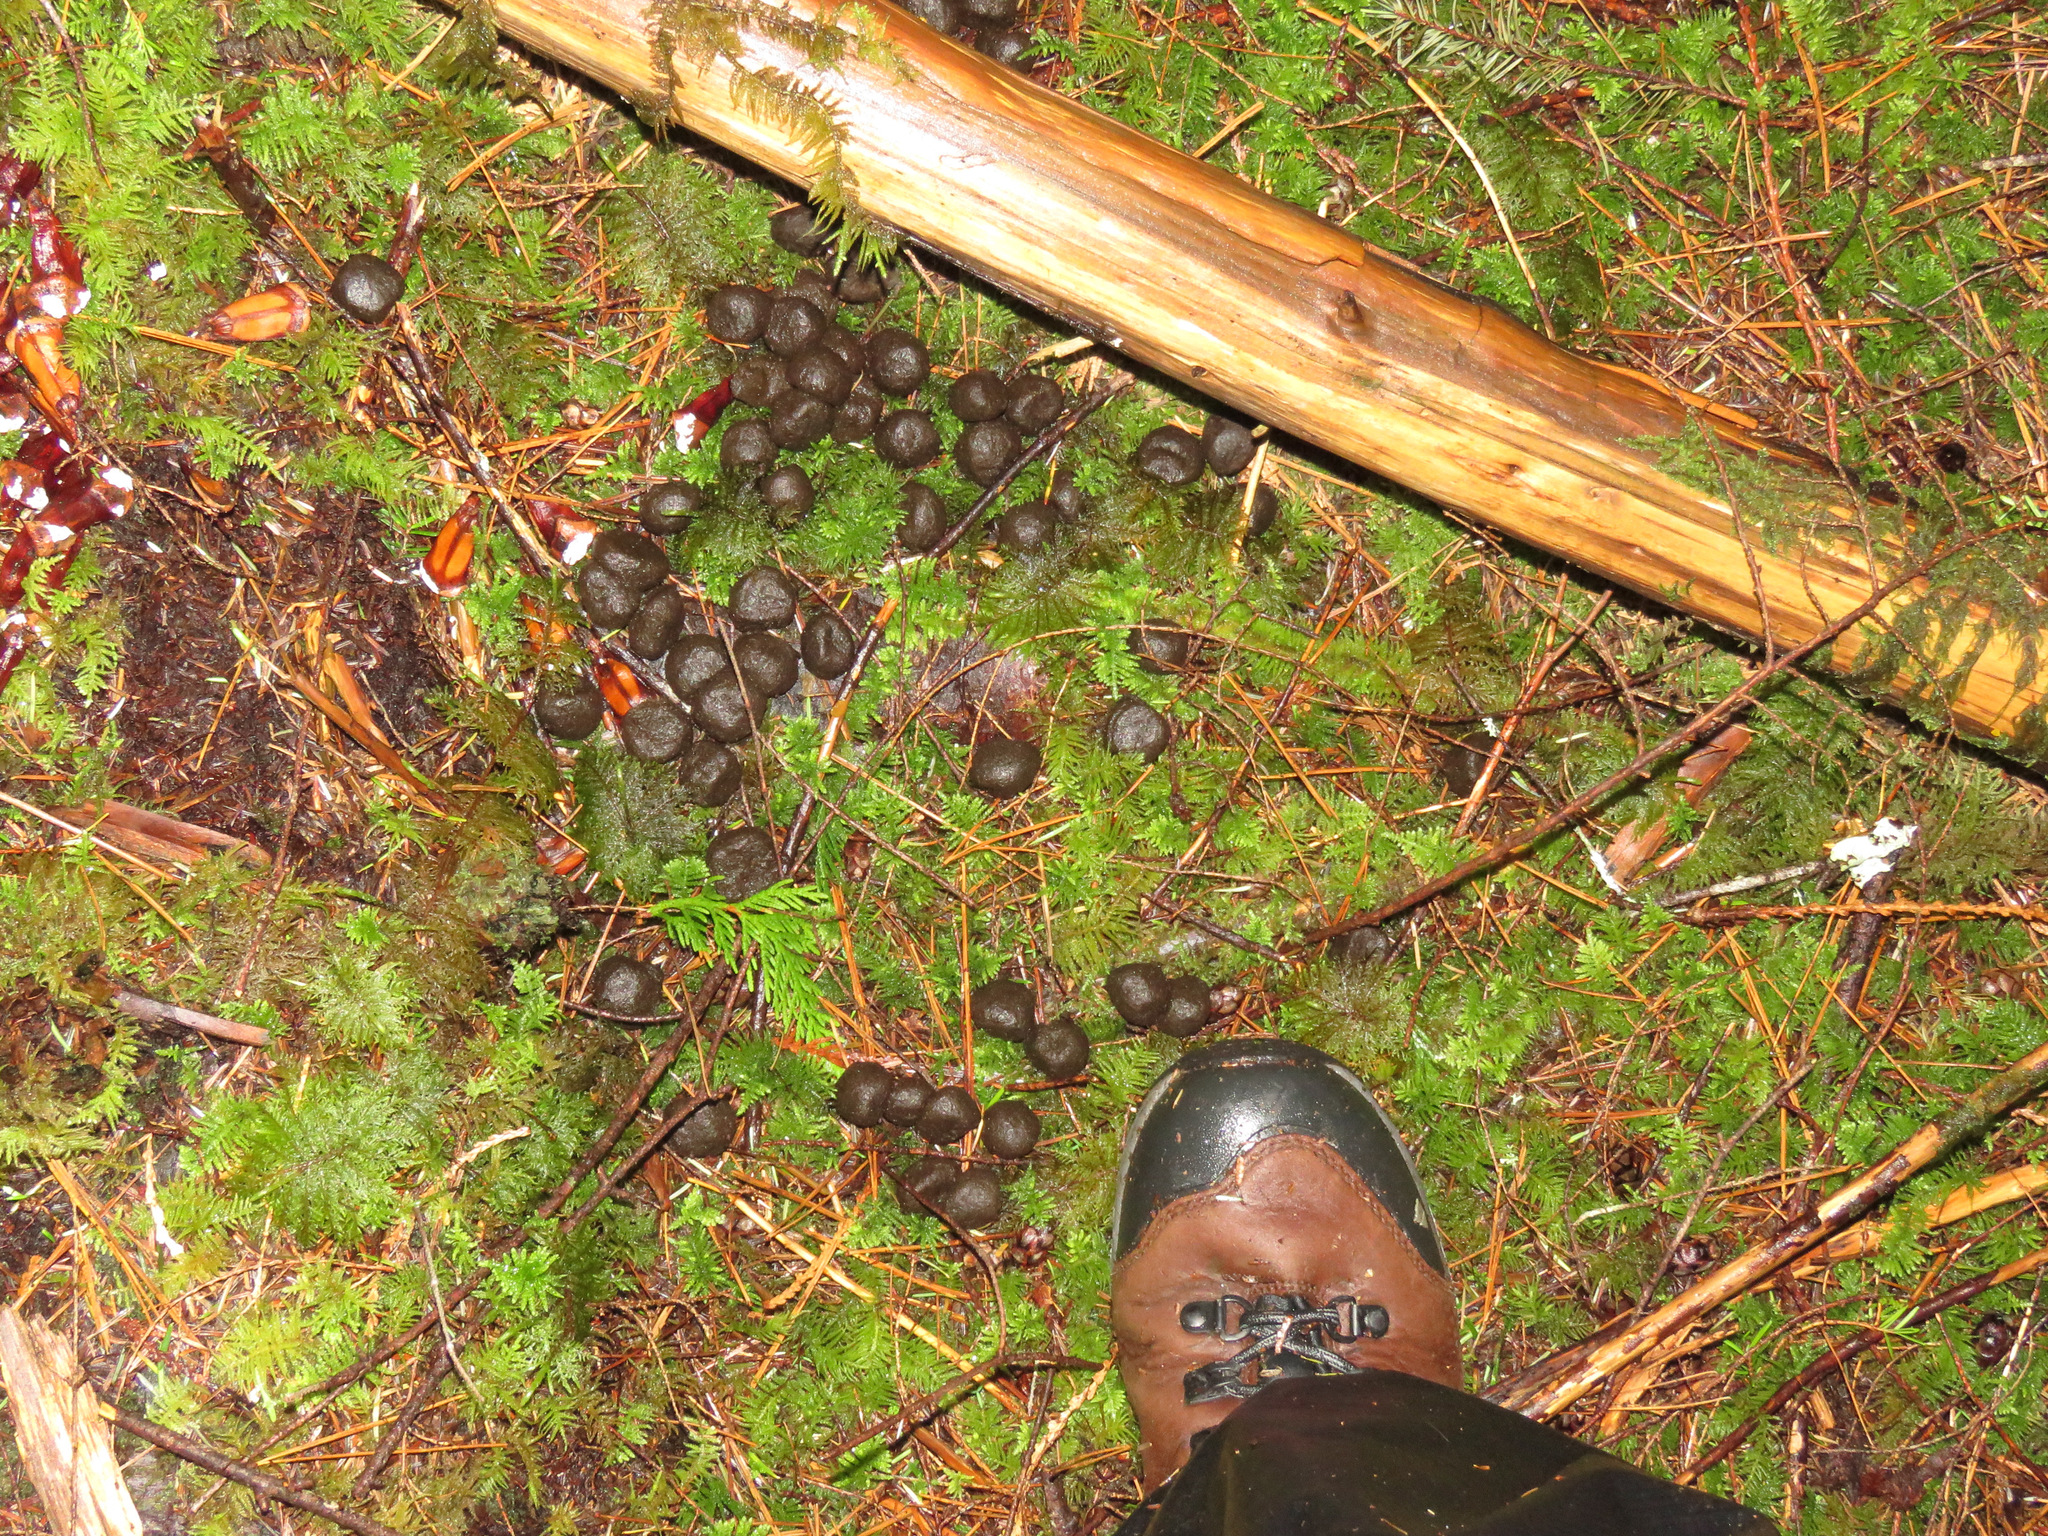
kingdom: Animalia
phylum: Chordata
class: Mammalia
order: Artiodactyla
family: Cervidae
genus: Cervus
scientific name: Cervus elaphus
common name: Red deer
